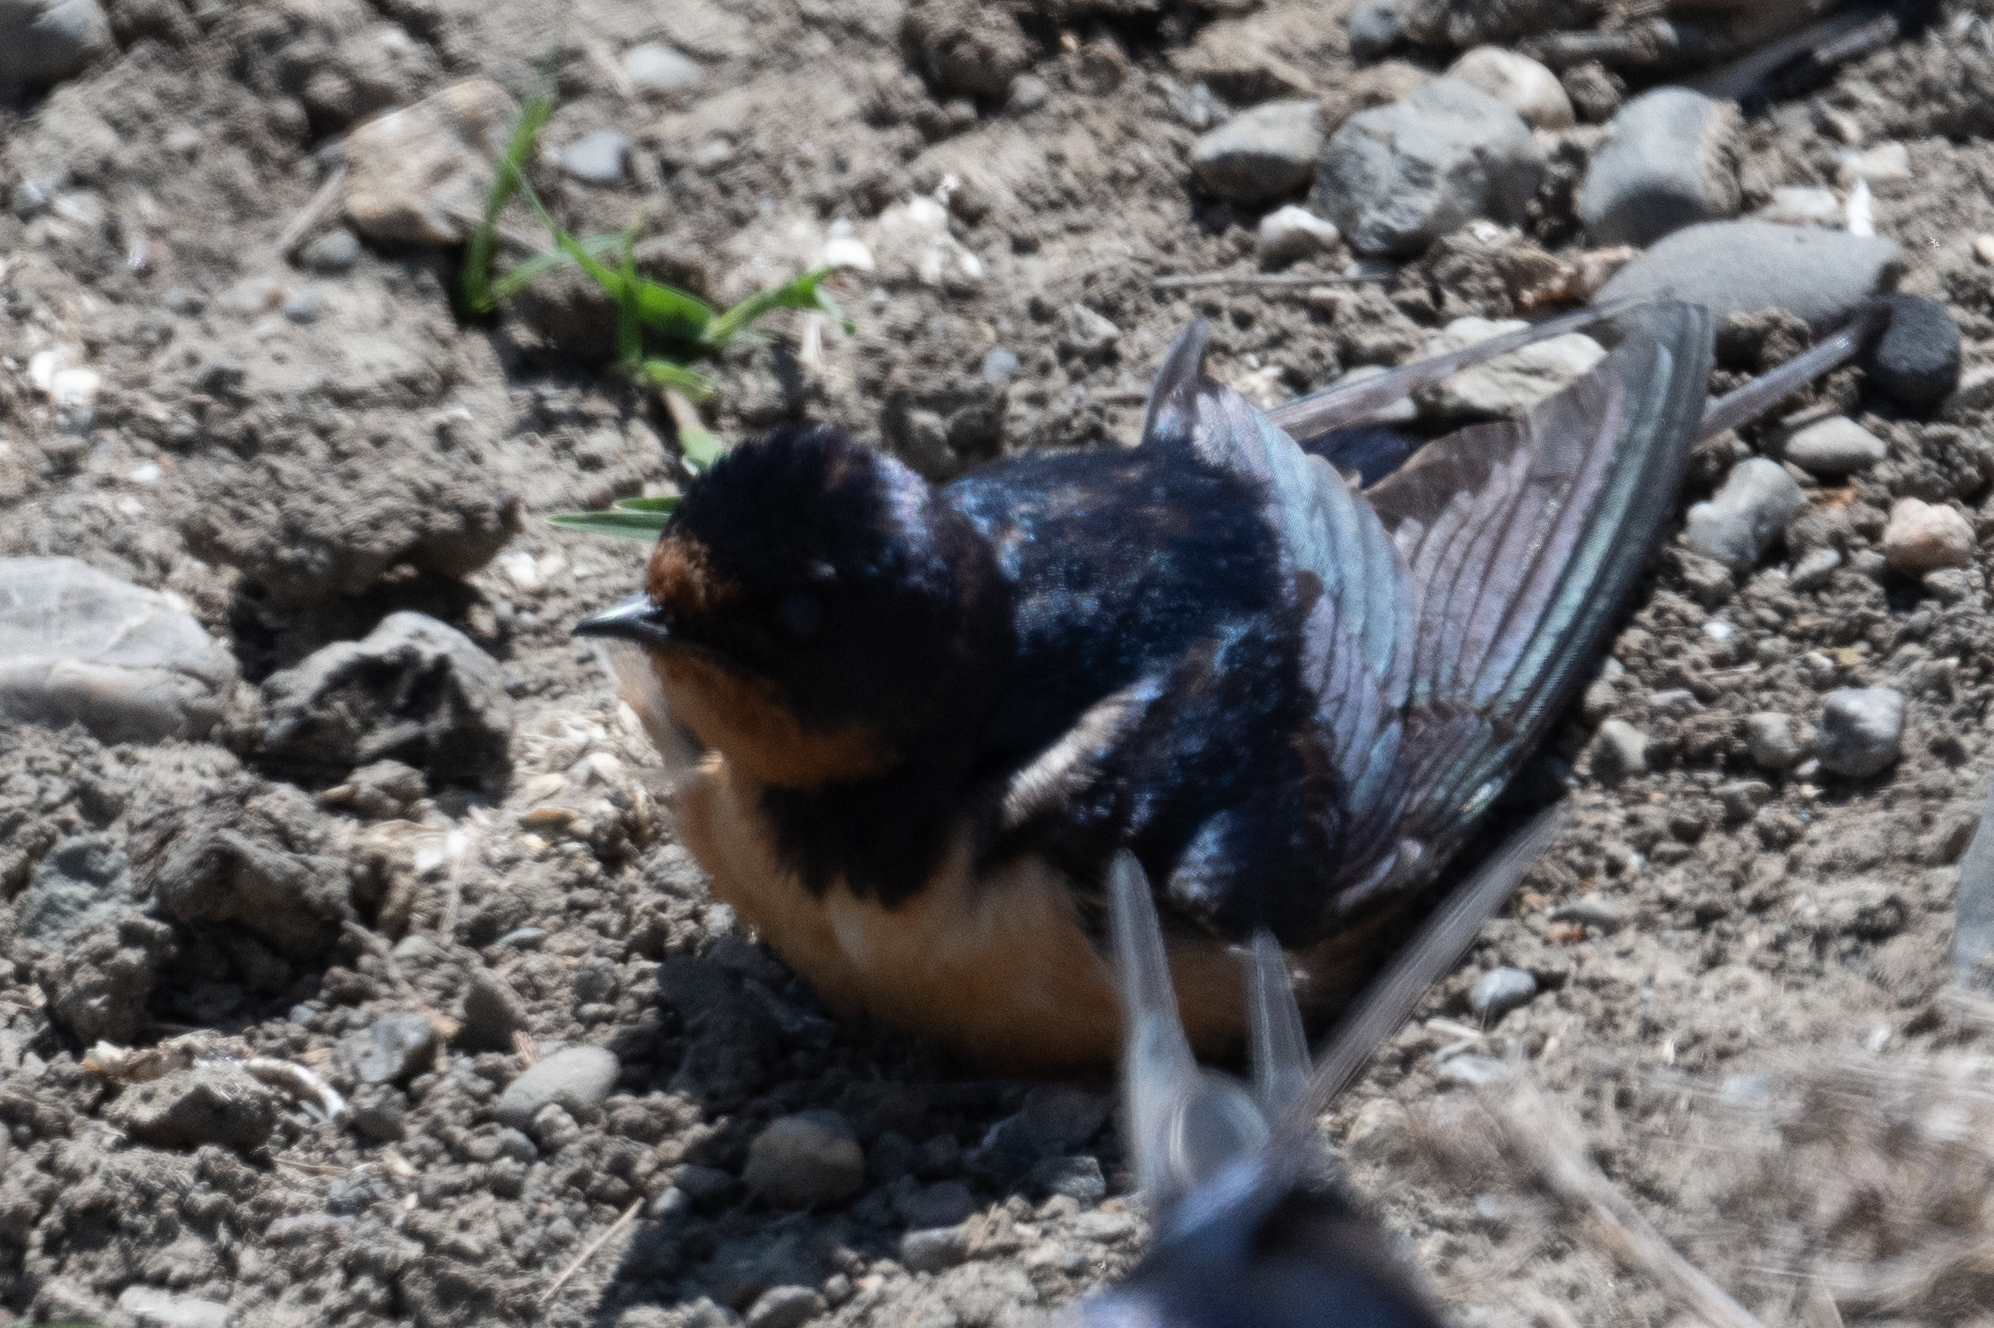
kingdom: Animalia
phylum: Chordata
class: Aves
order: Passeriformes
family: Hirundinidae
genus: Hirundo
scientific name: Hirundo rustica
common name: Barn swallow
